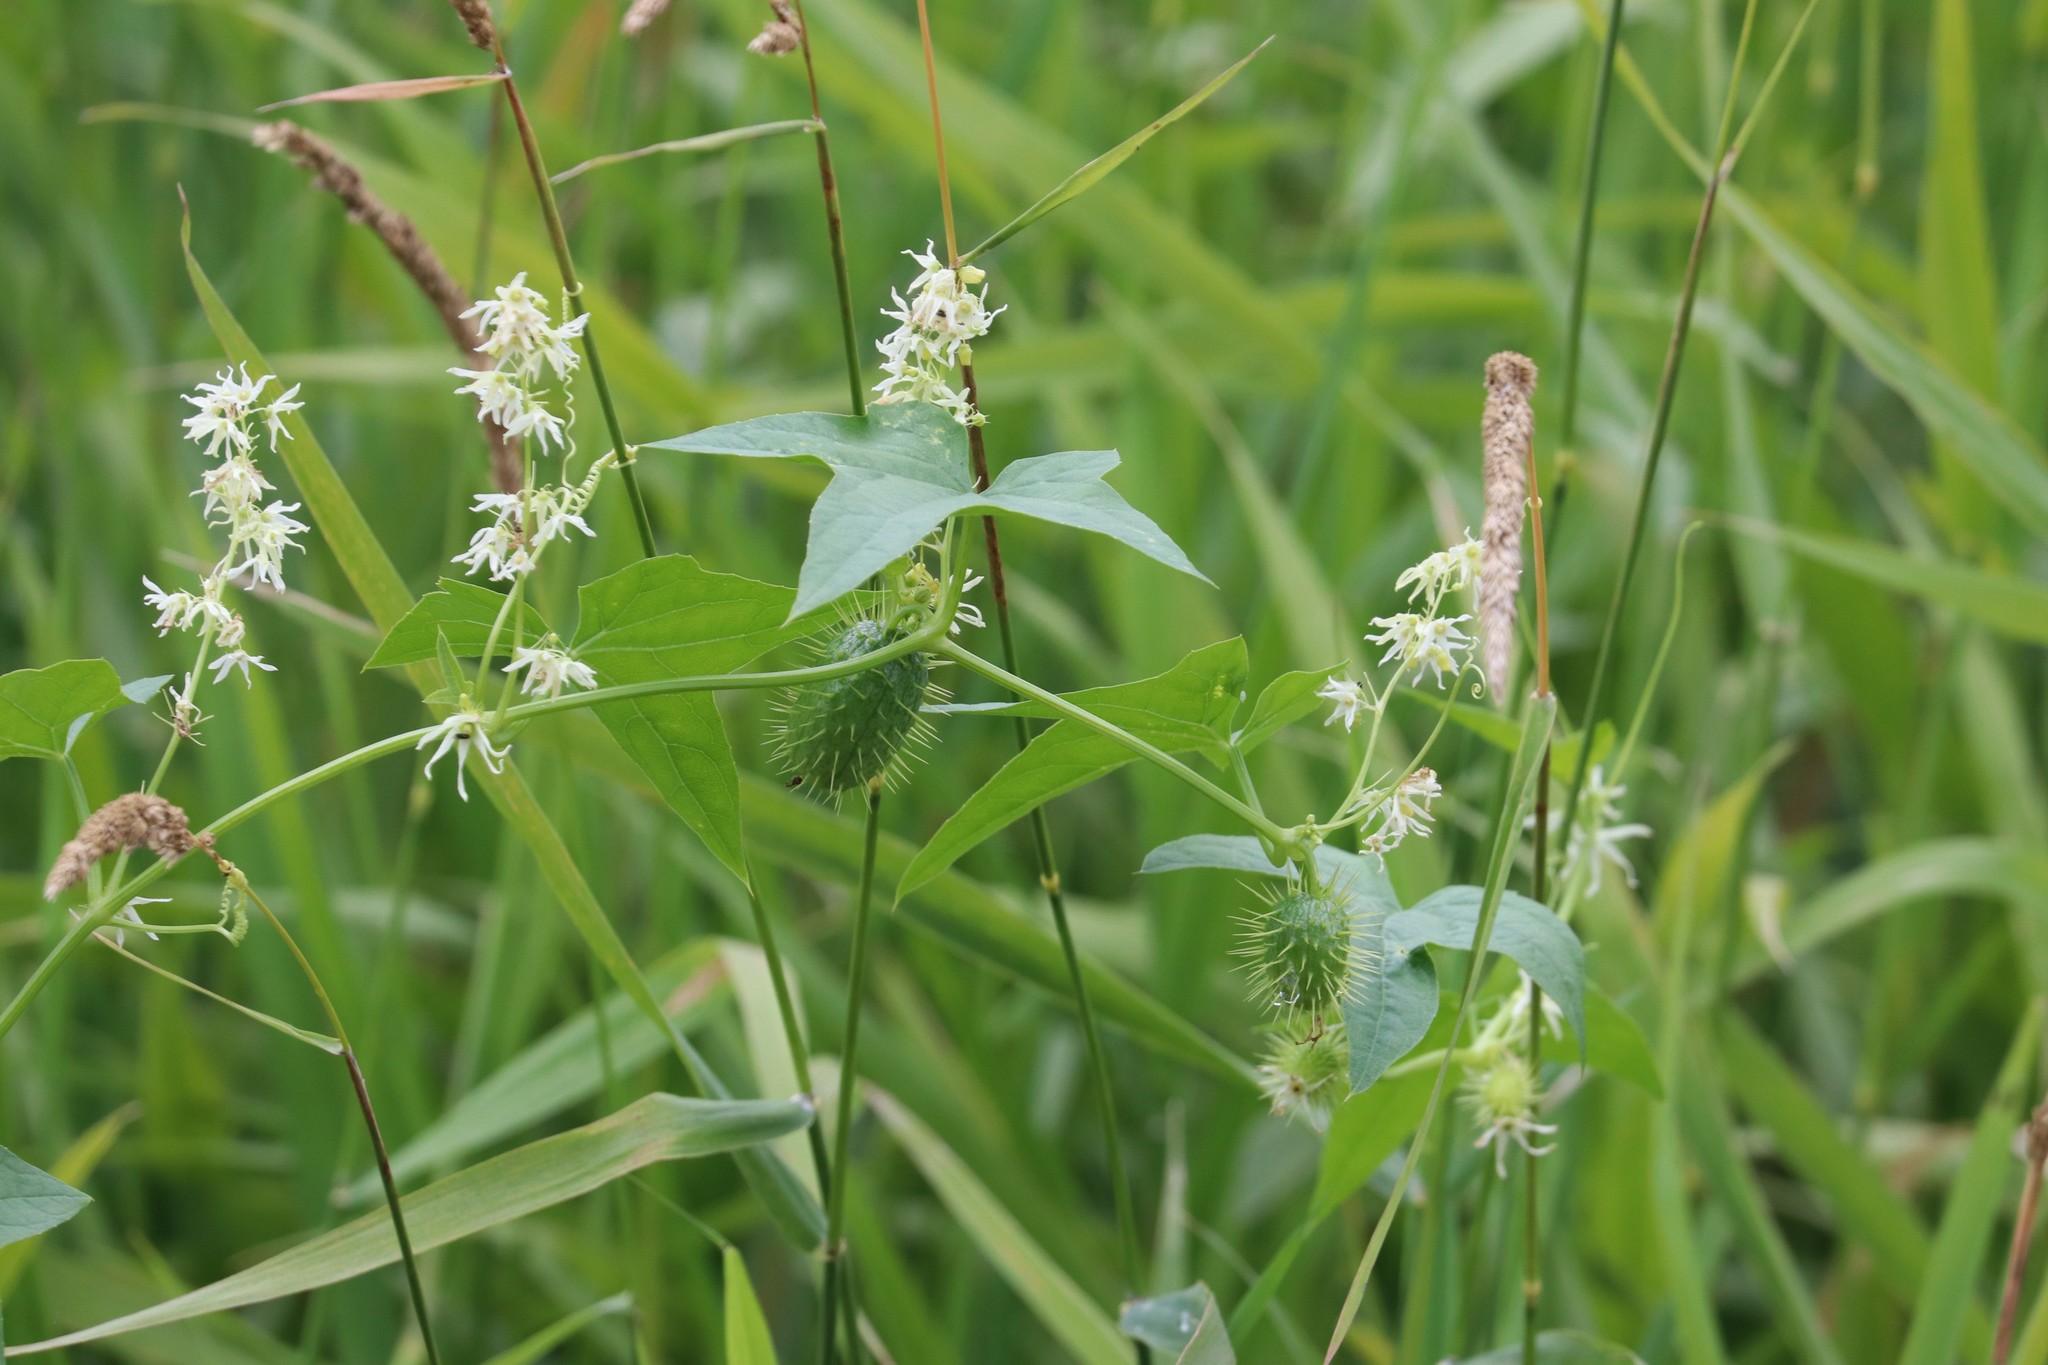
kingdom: Plantae
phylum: Tracheophyta
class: Magnoliopsida
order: Cucurbitales
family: Cucurbitaceae
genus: Echinocystis
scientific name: Echinocystis lobata
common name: Wild cucumber
